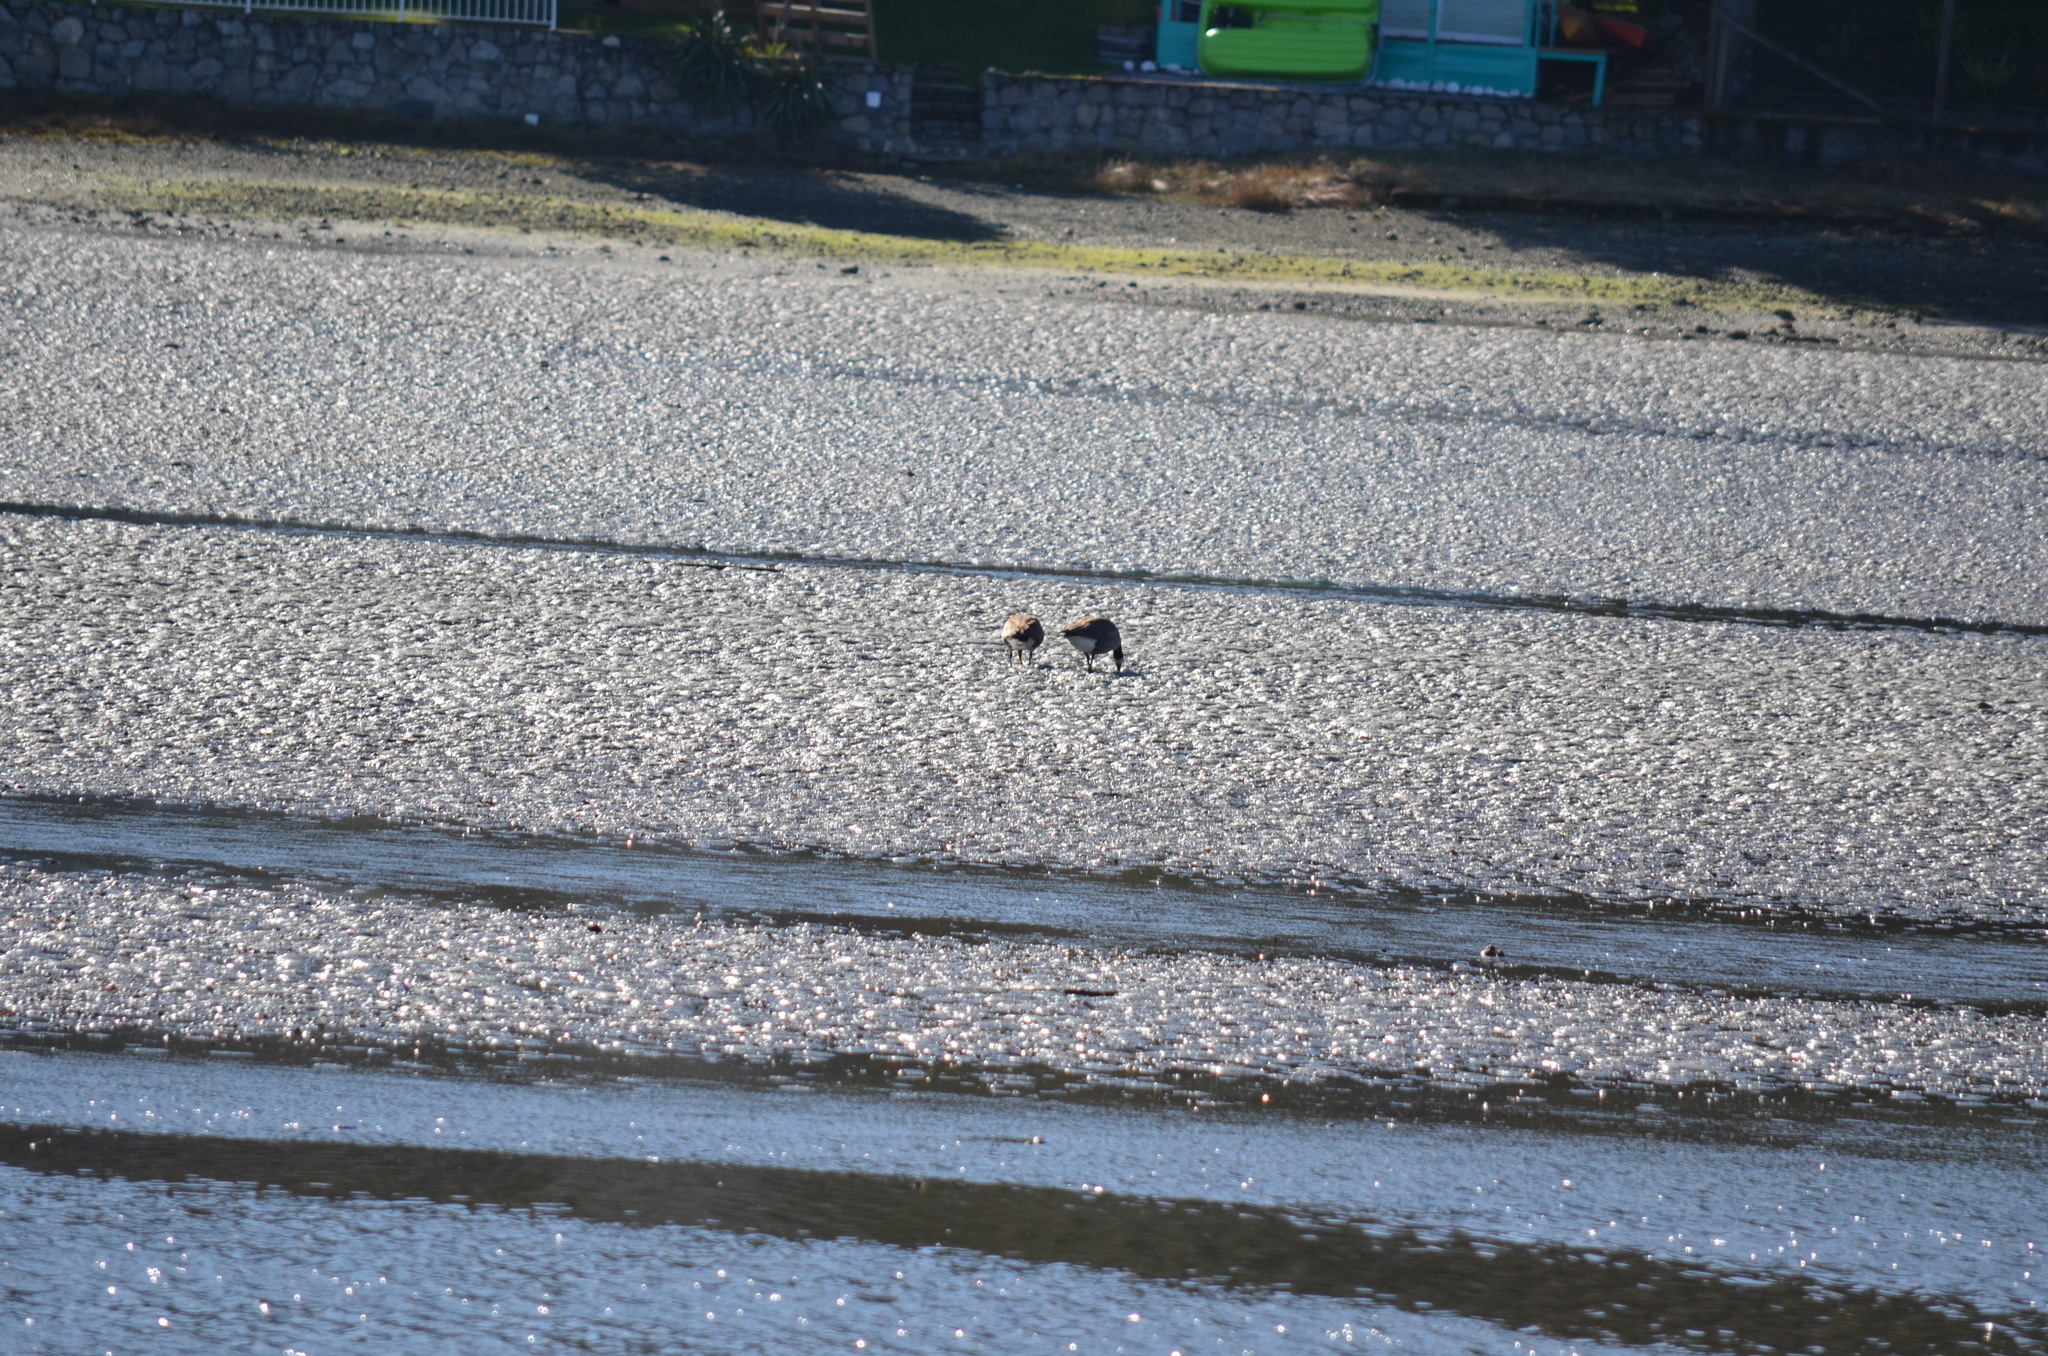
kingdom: Animalia
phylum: Chordata
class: Aves
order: Anseriformes
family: Anatidae
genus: Branta
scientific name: Branta canadensis
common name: Canada goose
